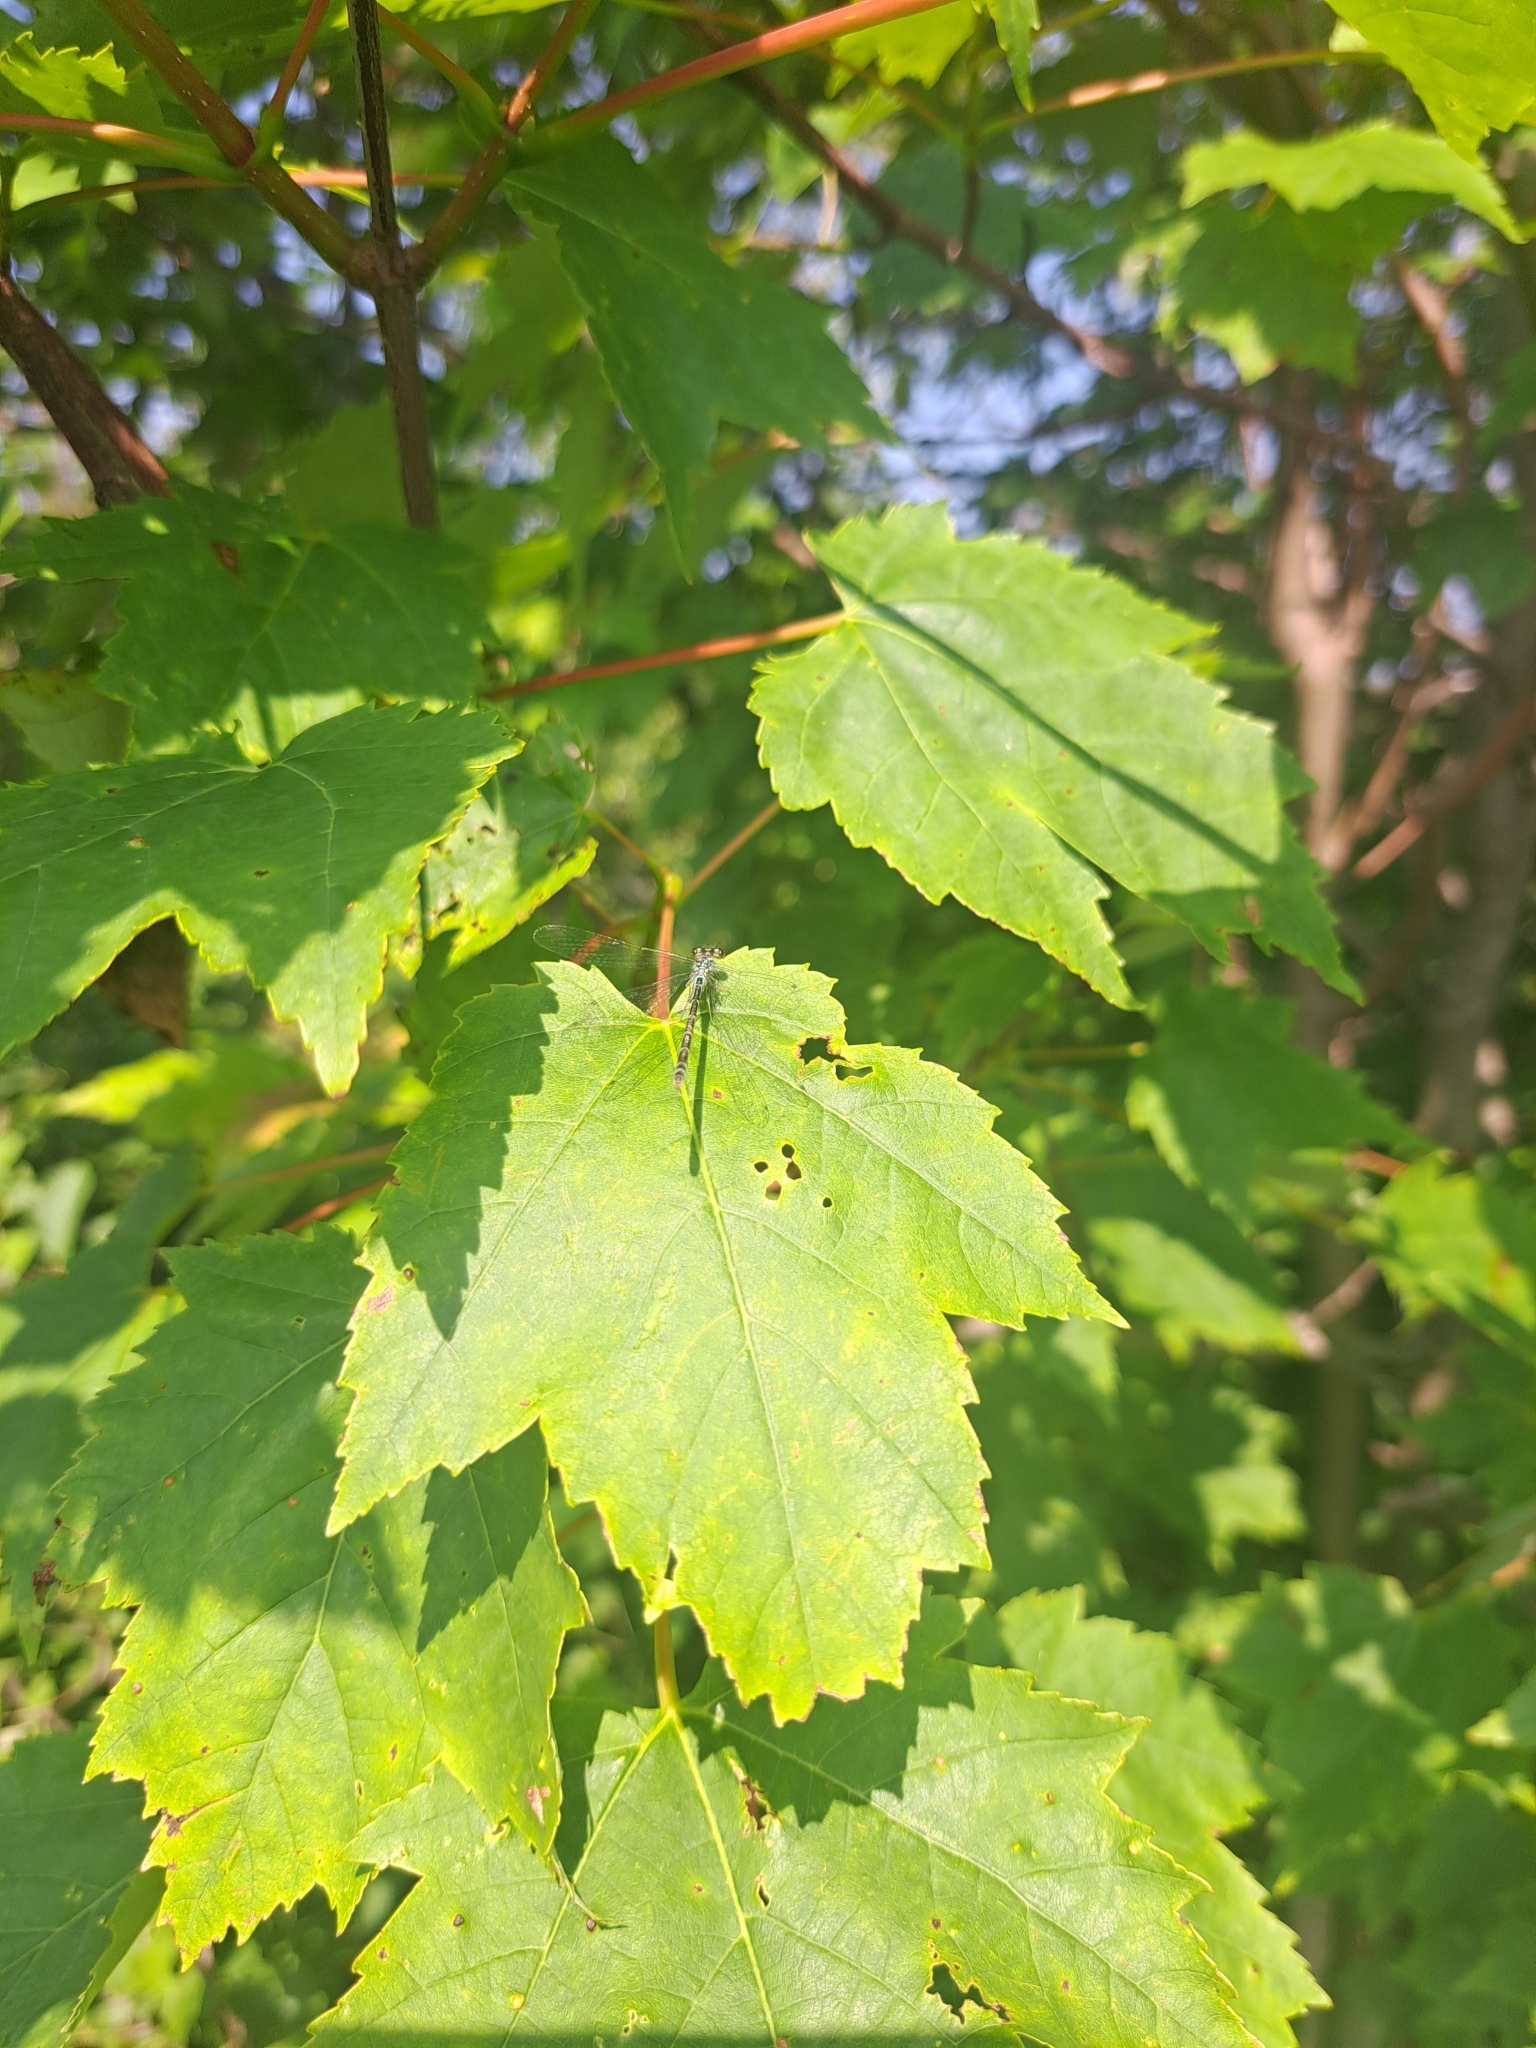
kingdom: Animalia
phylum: Arthropoda
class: Arachnida
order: Trombidiformes
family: Eriophyidae
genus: Aculus
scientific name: Aculus
